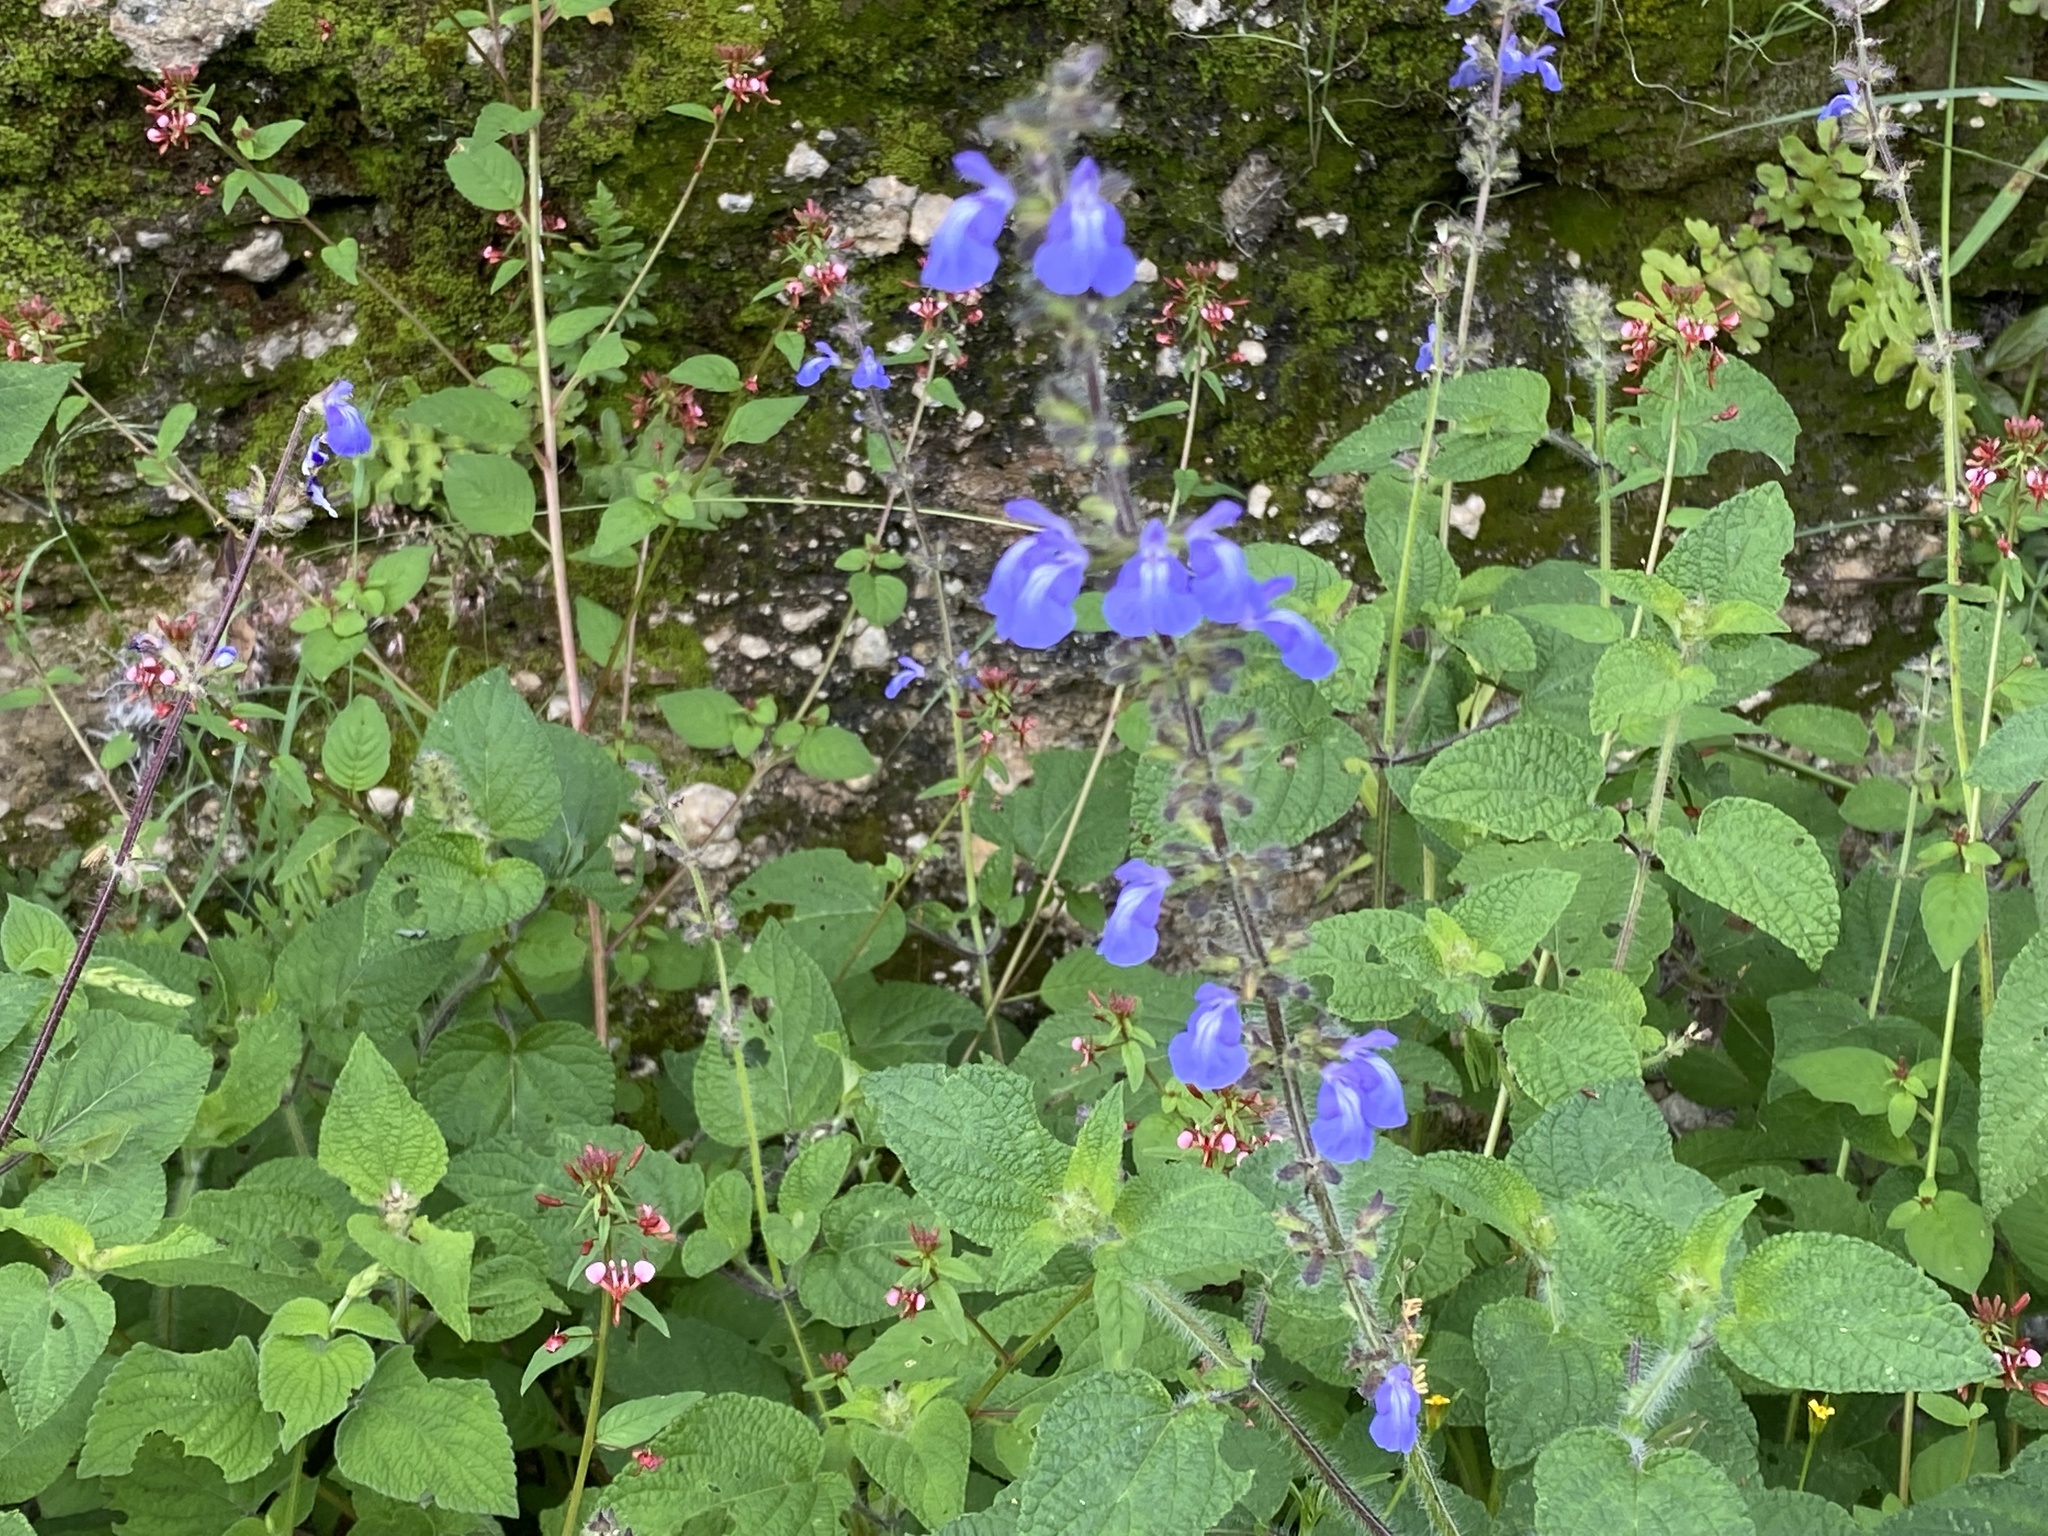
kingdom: Plantae
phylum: Tracheophyta
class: Magnoliopsida
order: Lamiales
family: Lamiaceae
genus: Salvia
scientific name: Salvia circinnata
